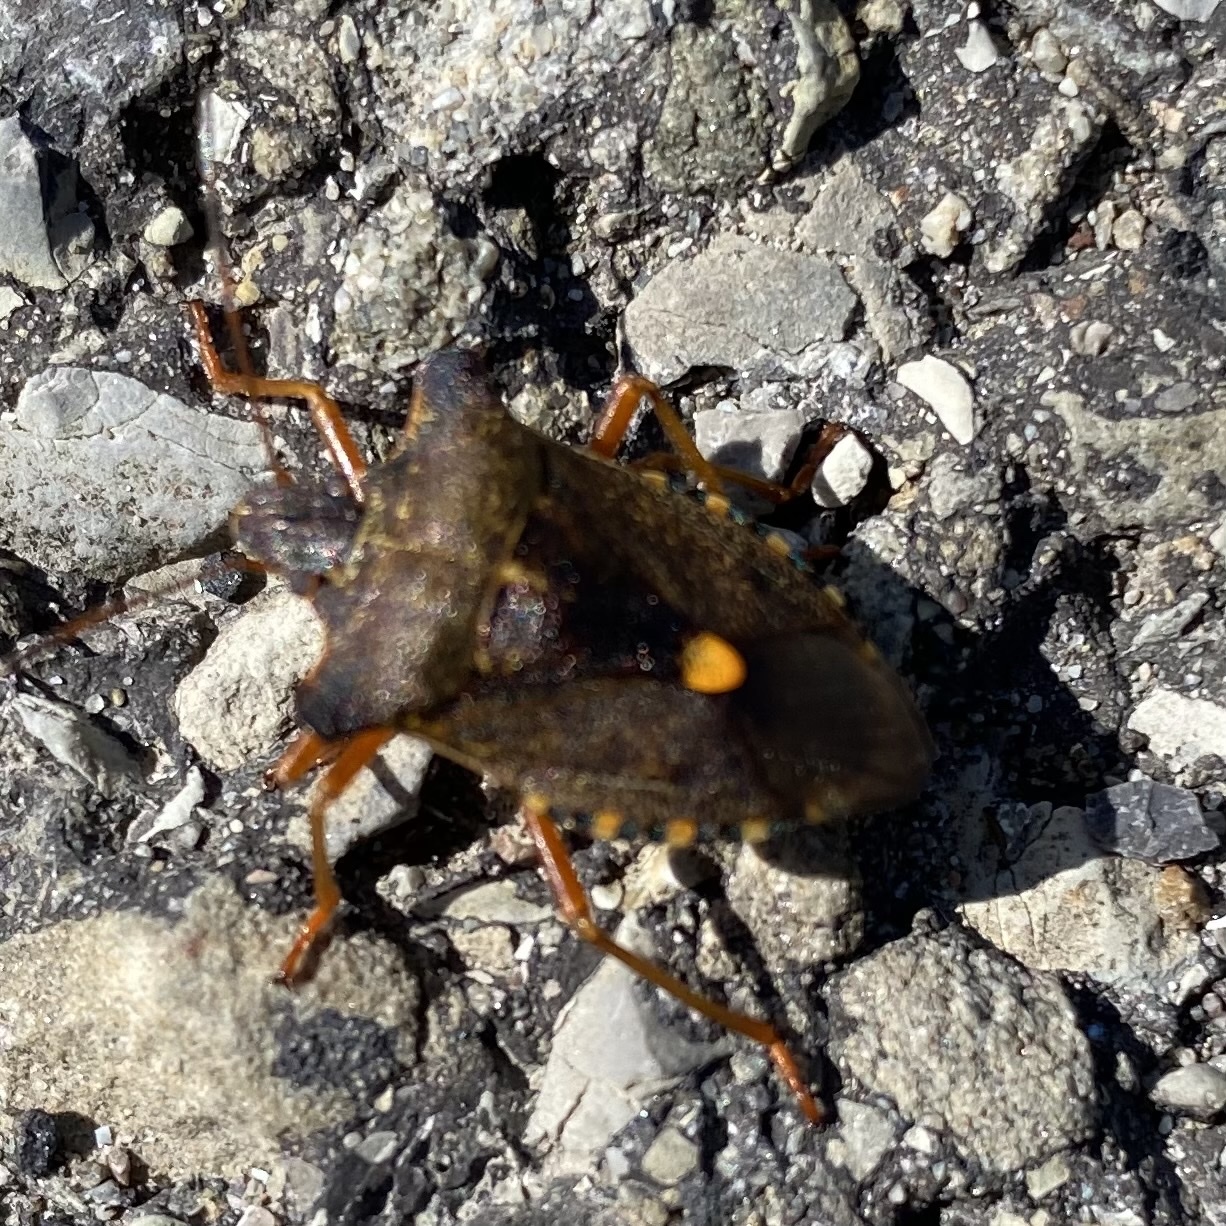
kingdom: Animalia
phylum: Arthropoda
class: Insecta
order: Hemiptera
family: Pentatomidae
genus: Pentatoma
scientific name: Pentatoma rufipes
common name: Forest bug
